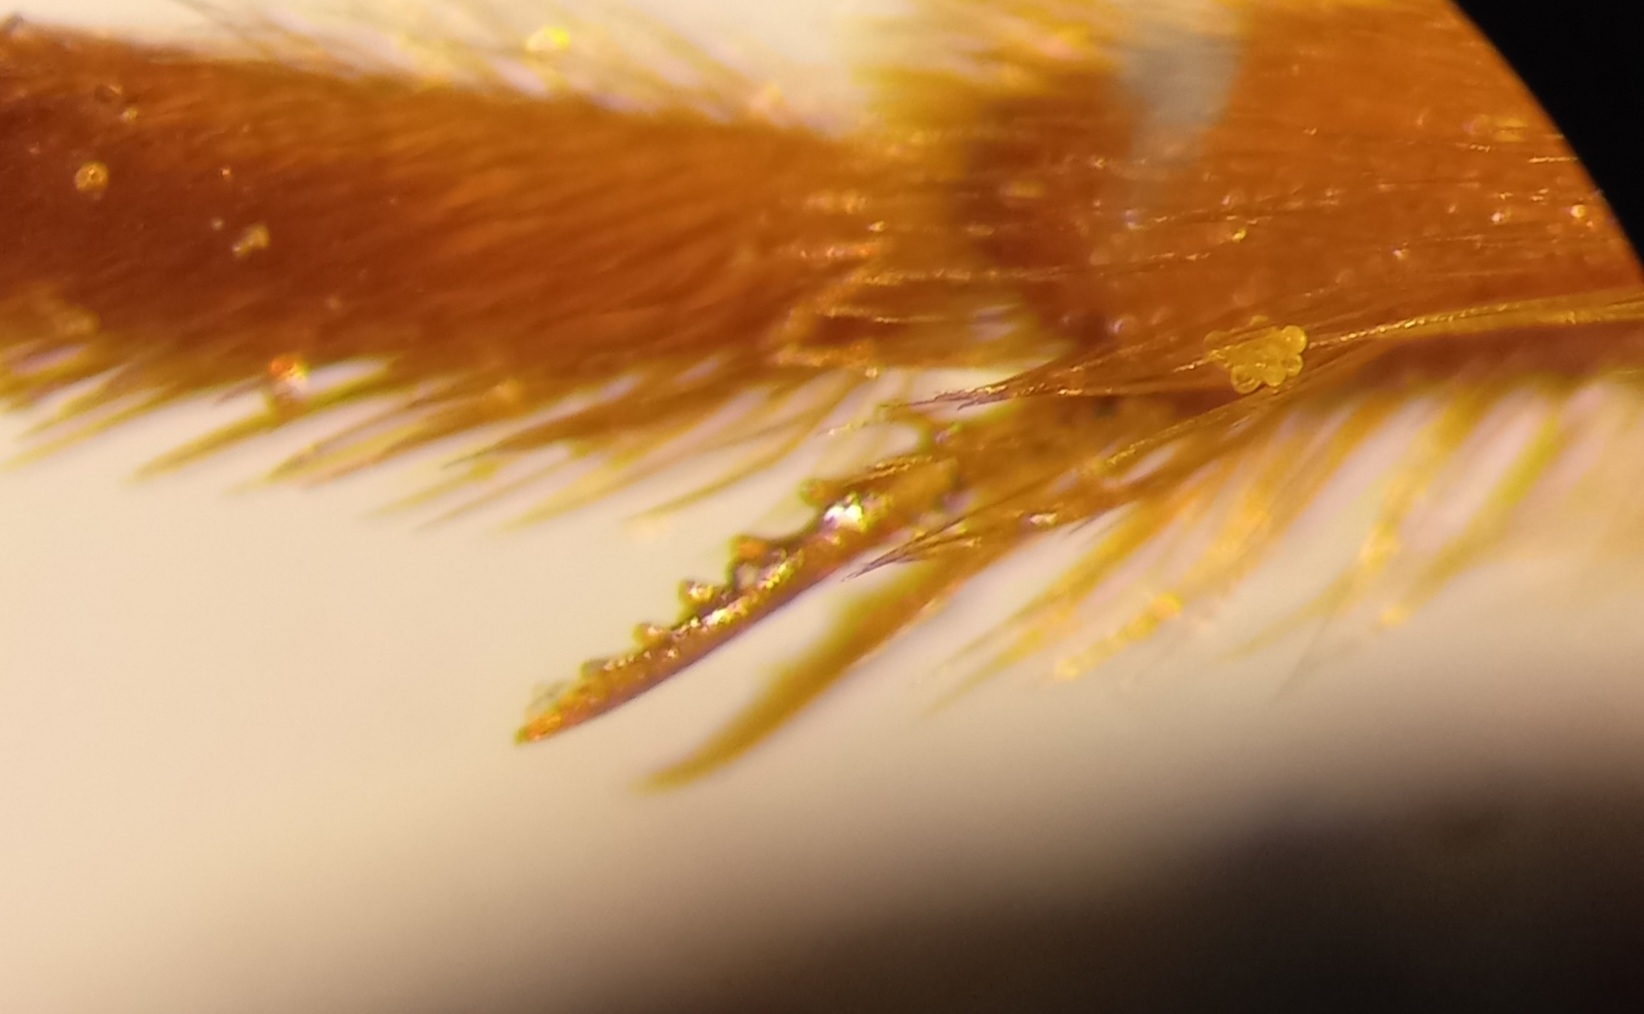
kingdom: Animalia
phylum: Arthropoda
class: Insecta
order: Hymenoptera
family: Halictidae
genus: Lasioglossum
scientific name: Lasioglossum xanthopus
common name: Orange-footed furrow bee
